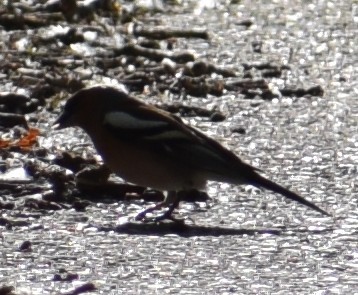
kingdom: Animalia
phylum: Chordata
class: Aves
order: Passeriformes
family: Fringillidae
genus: Fringilla
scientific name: Fringilla coelebs
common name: Common chaffinch
